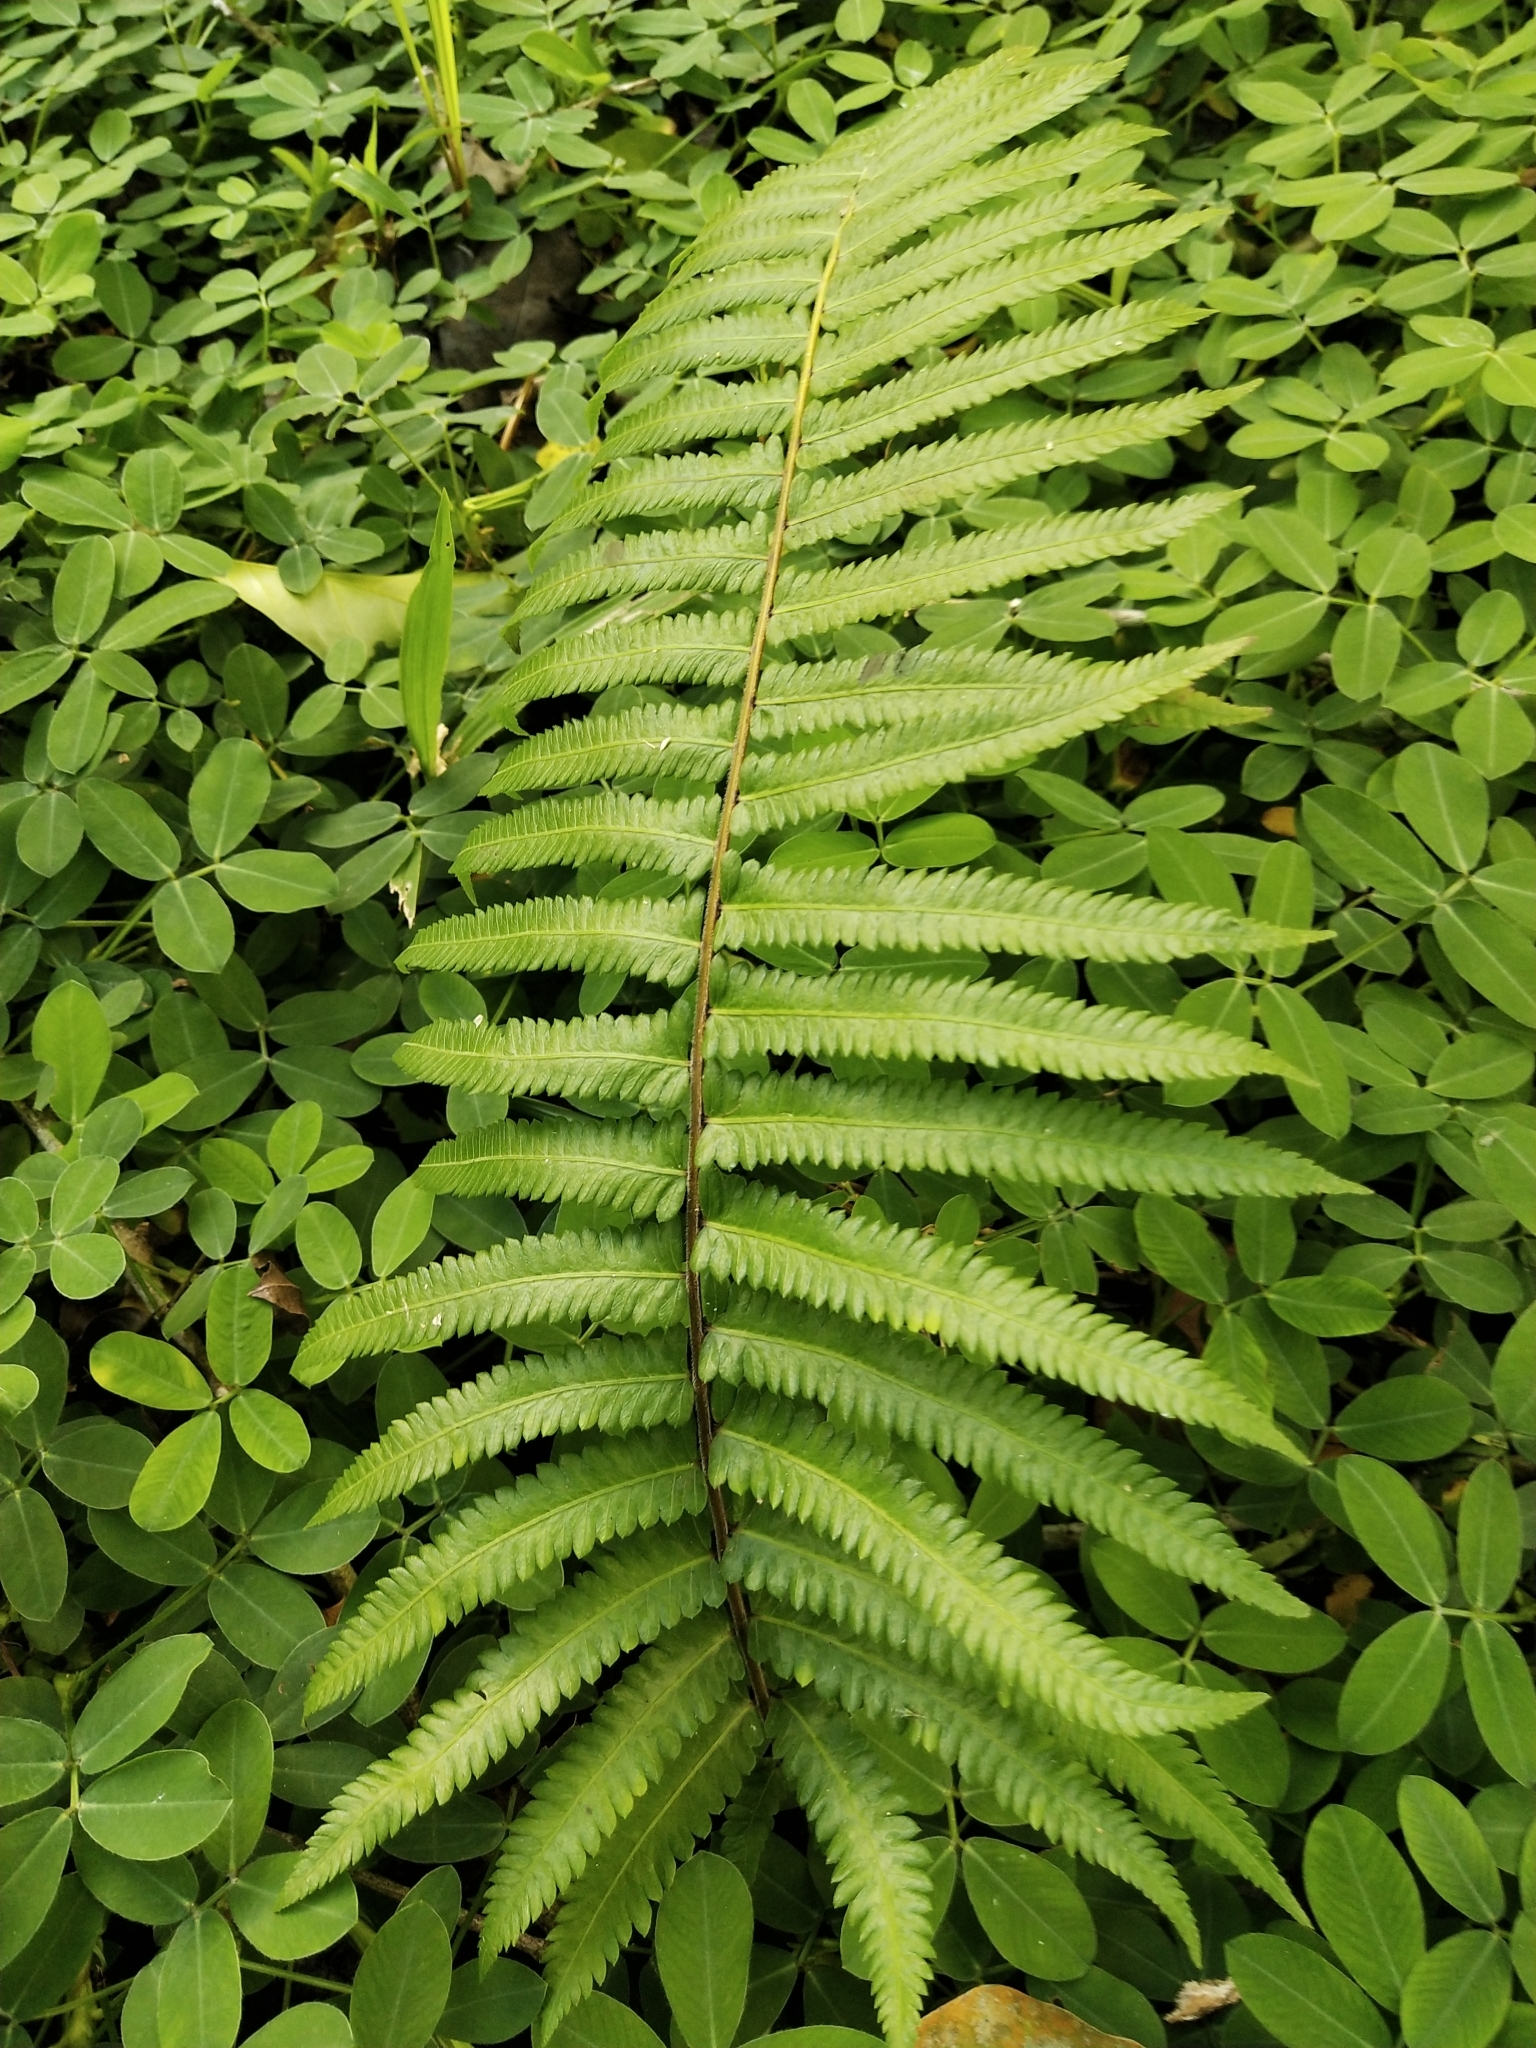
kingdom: Plantae
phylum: Tracheophyta
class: Polypodiopsida
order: Polypodiales
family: Thelypteridaceae
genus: Christella
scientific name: Christella arida
